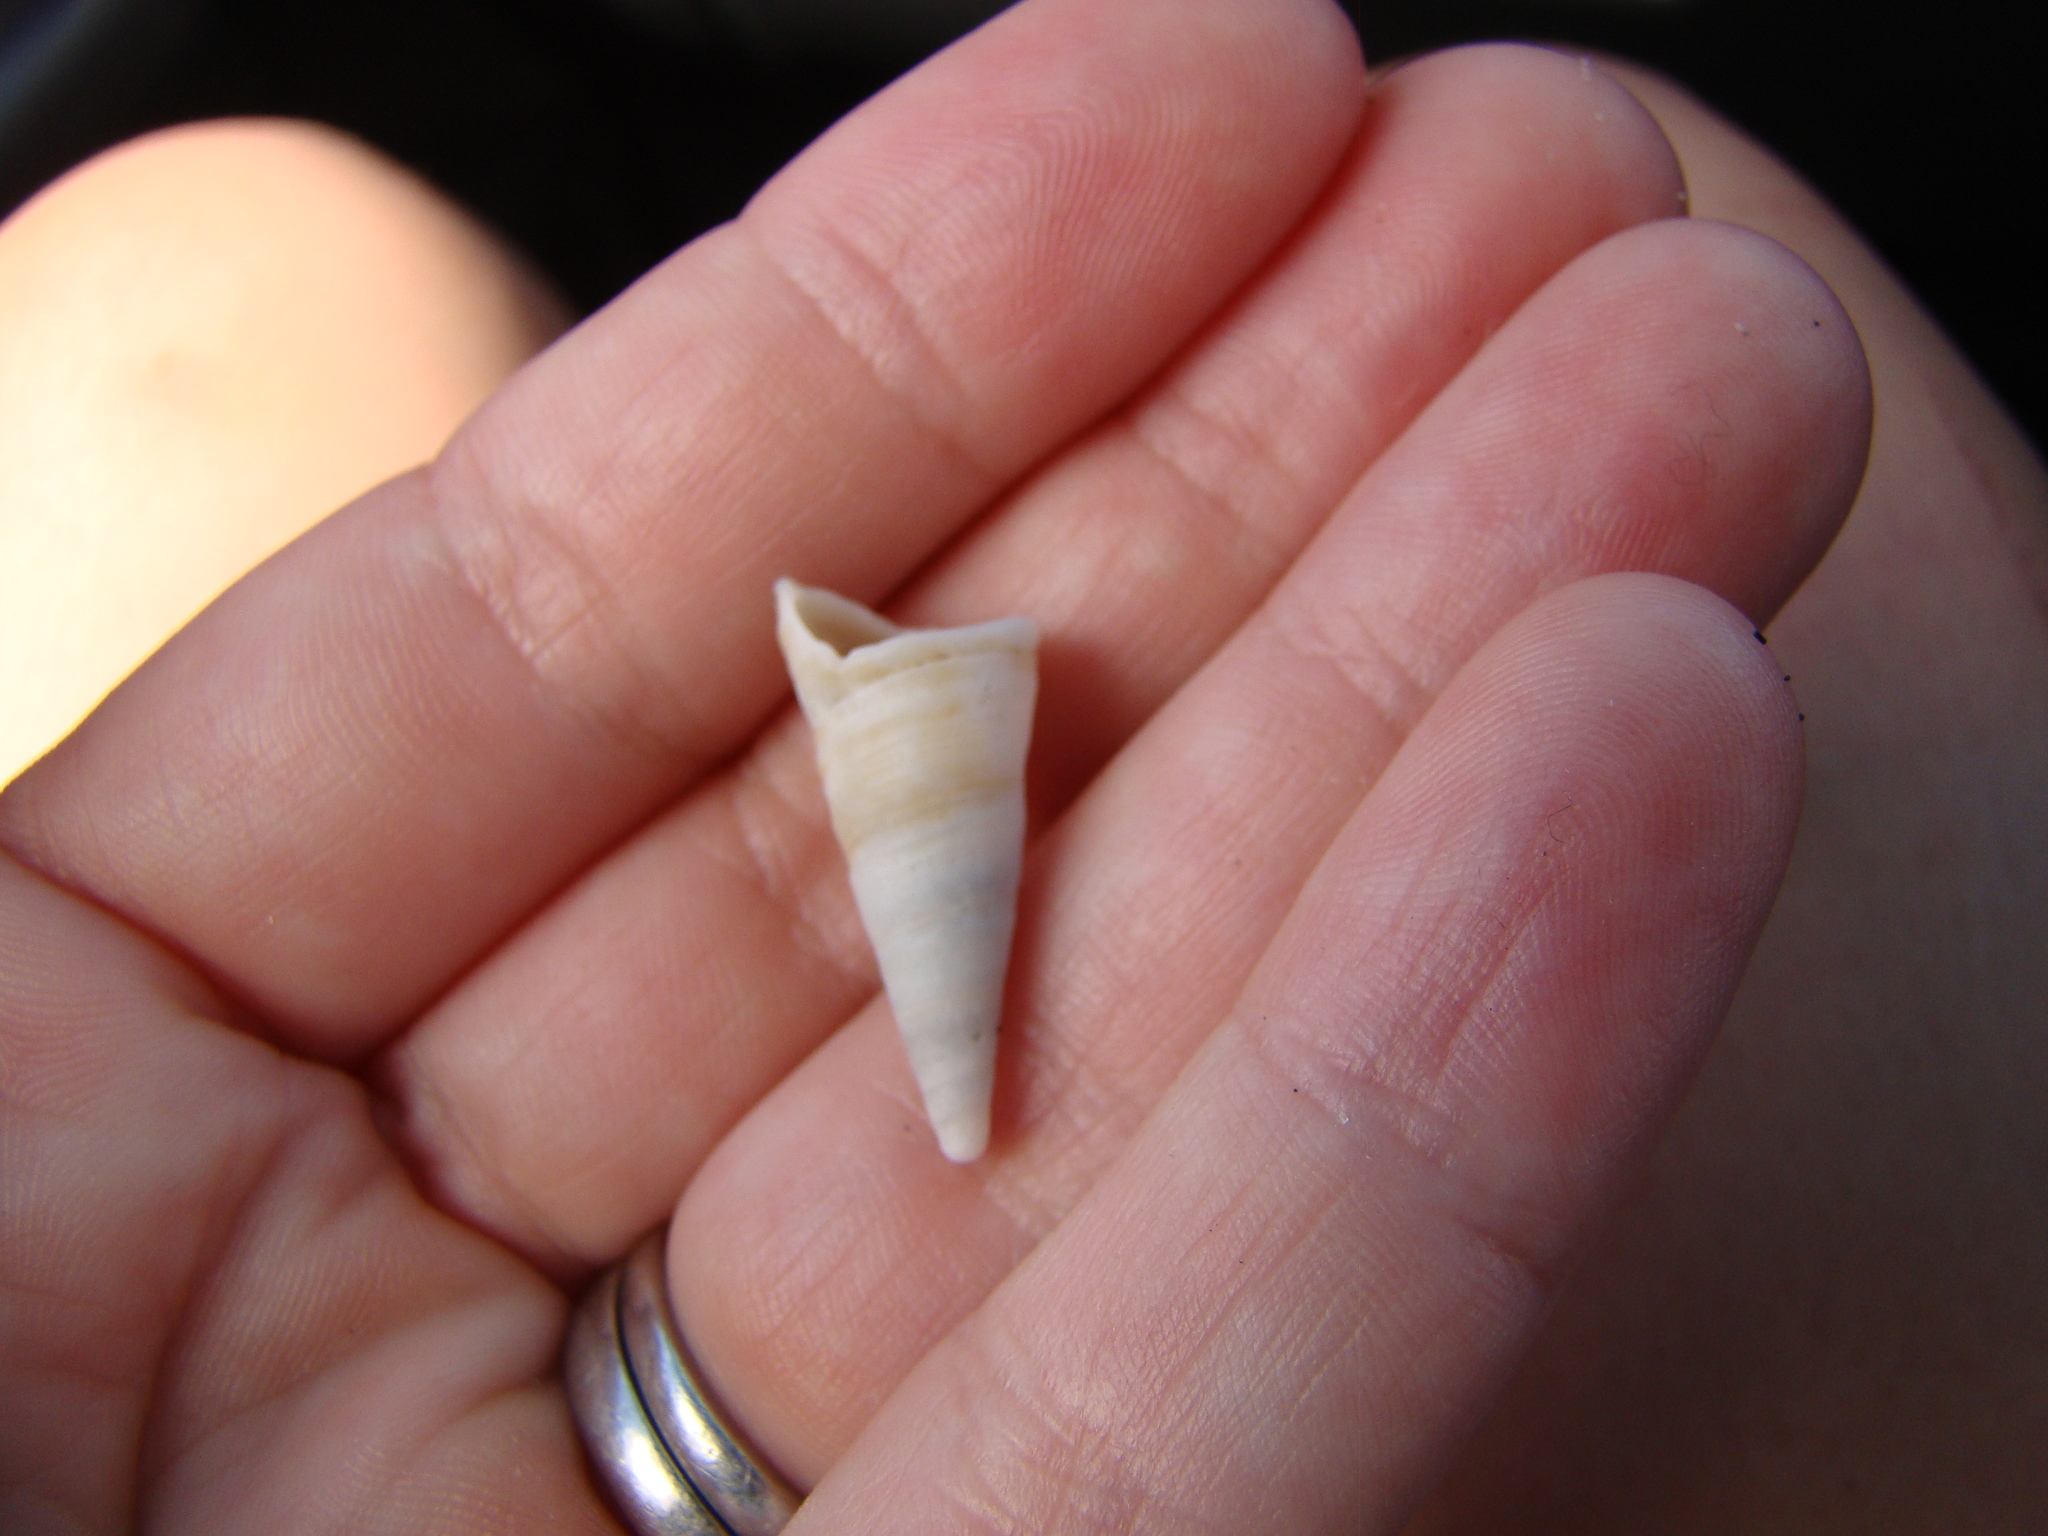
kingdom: Animalia
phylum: Mollusca
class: Gastropoda
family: Turritellidae
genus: Maoricolpus
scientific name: Maoricolpus roseus
